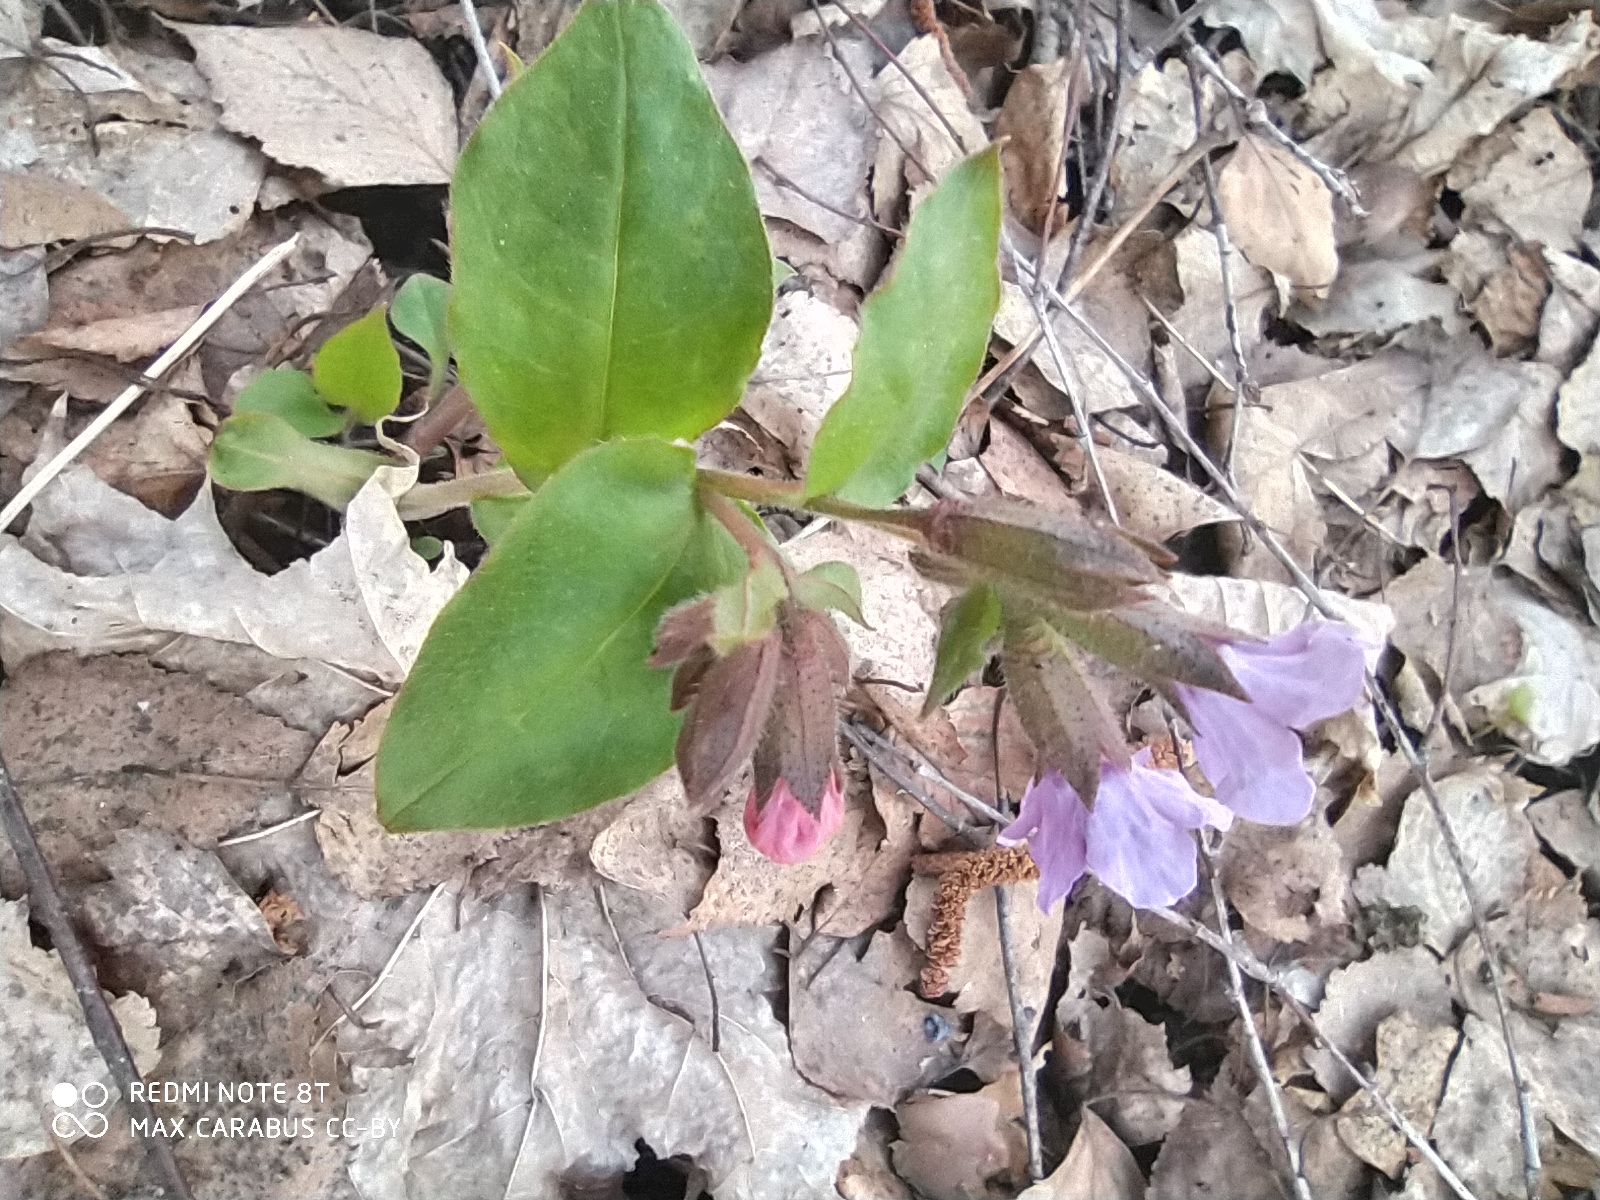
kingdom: Plantae
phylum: Tracheophyta
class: Magnoliopsida
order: Boraginales
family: Boraginaceae
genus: Pulmonaria
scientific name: Pulmonaria obscura
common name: Suffolk lungwort
